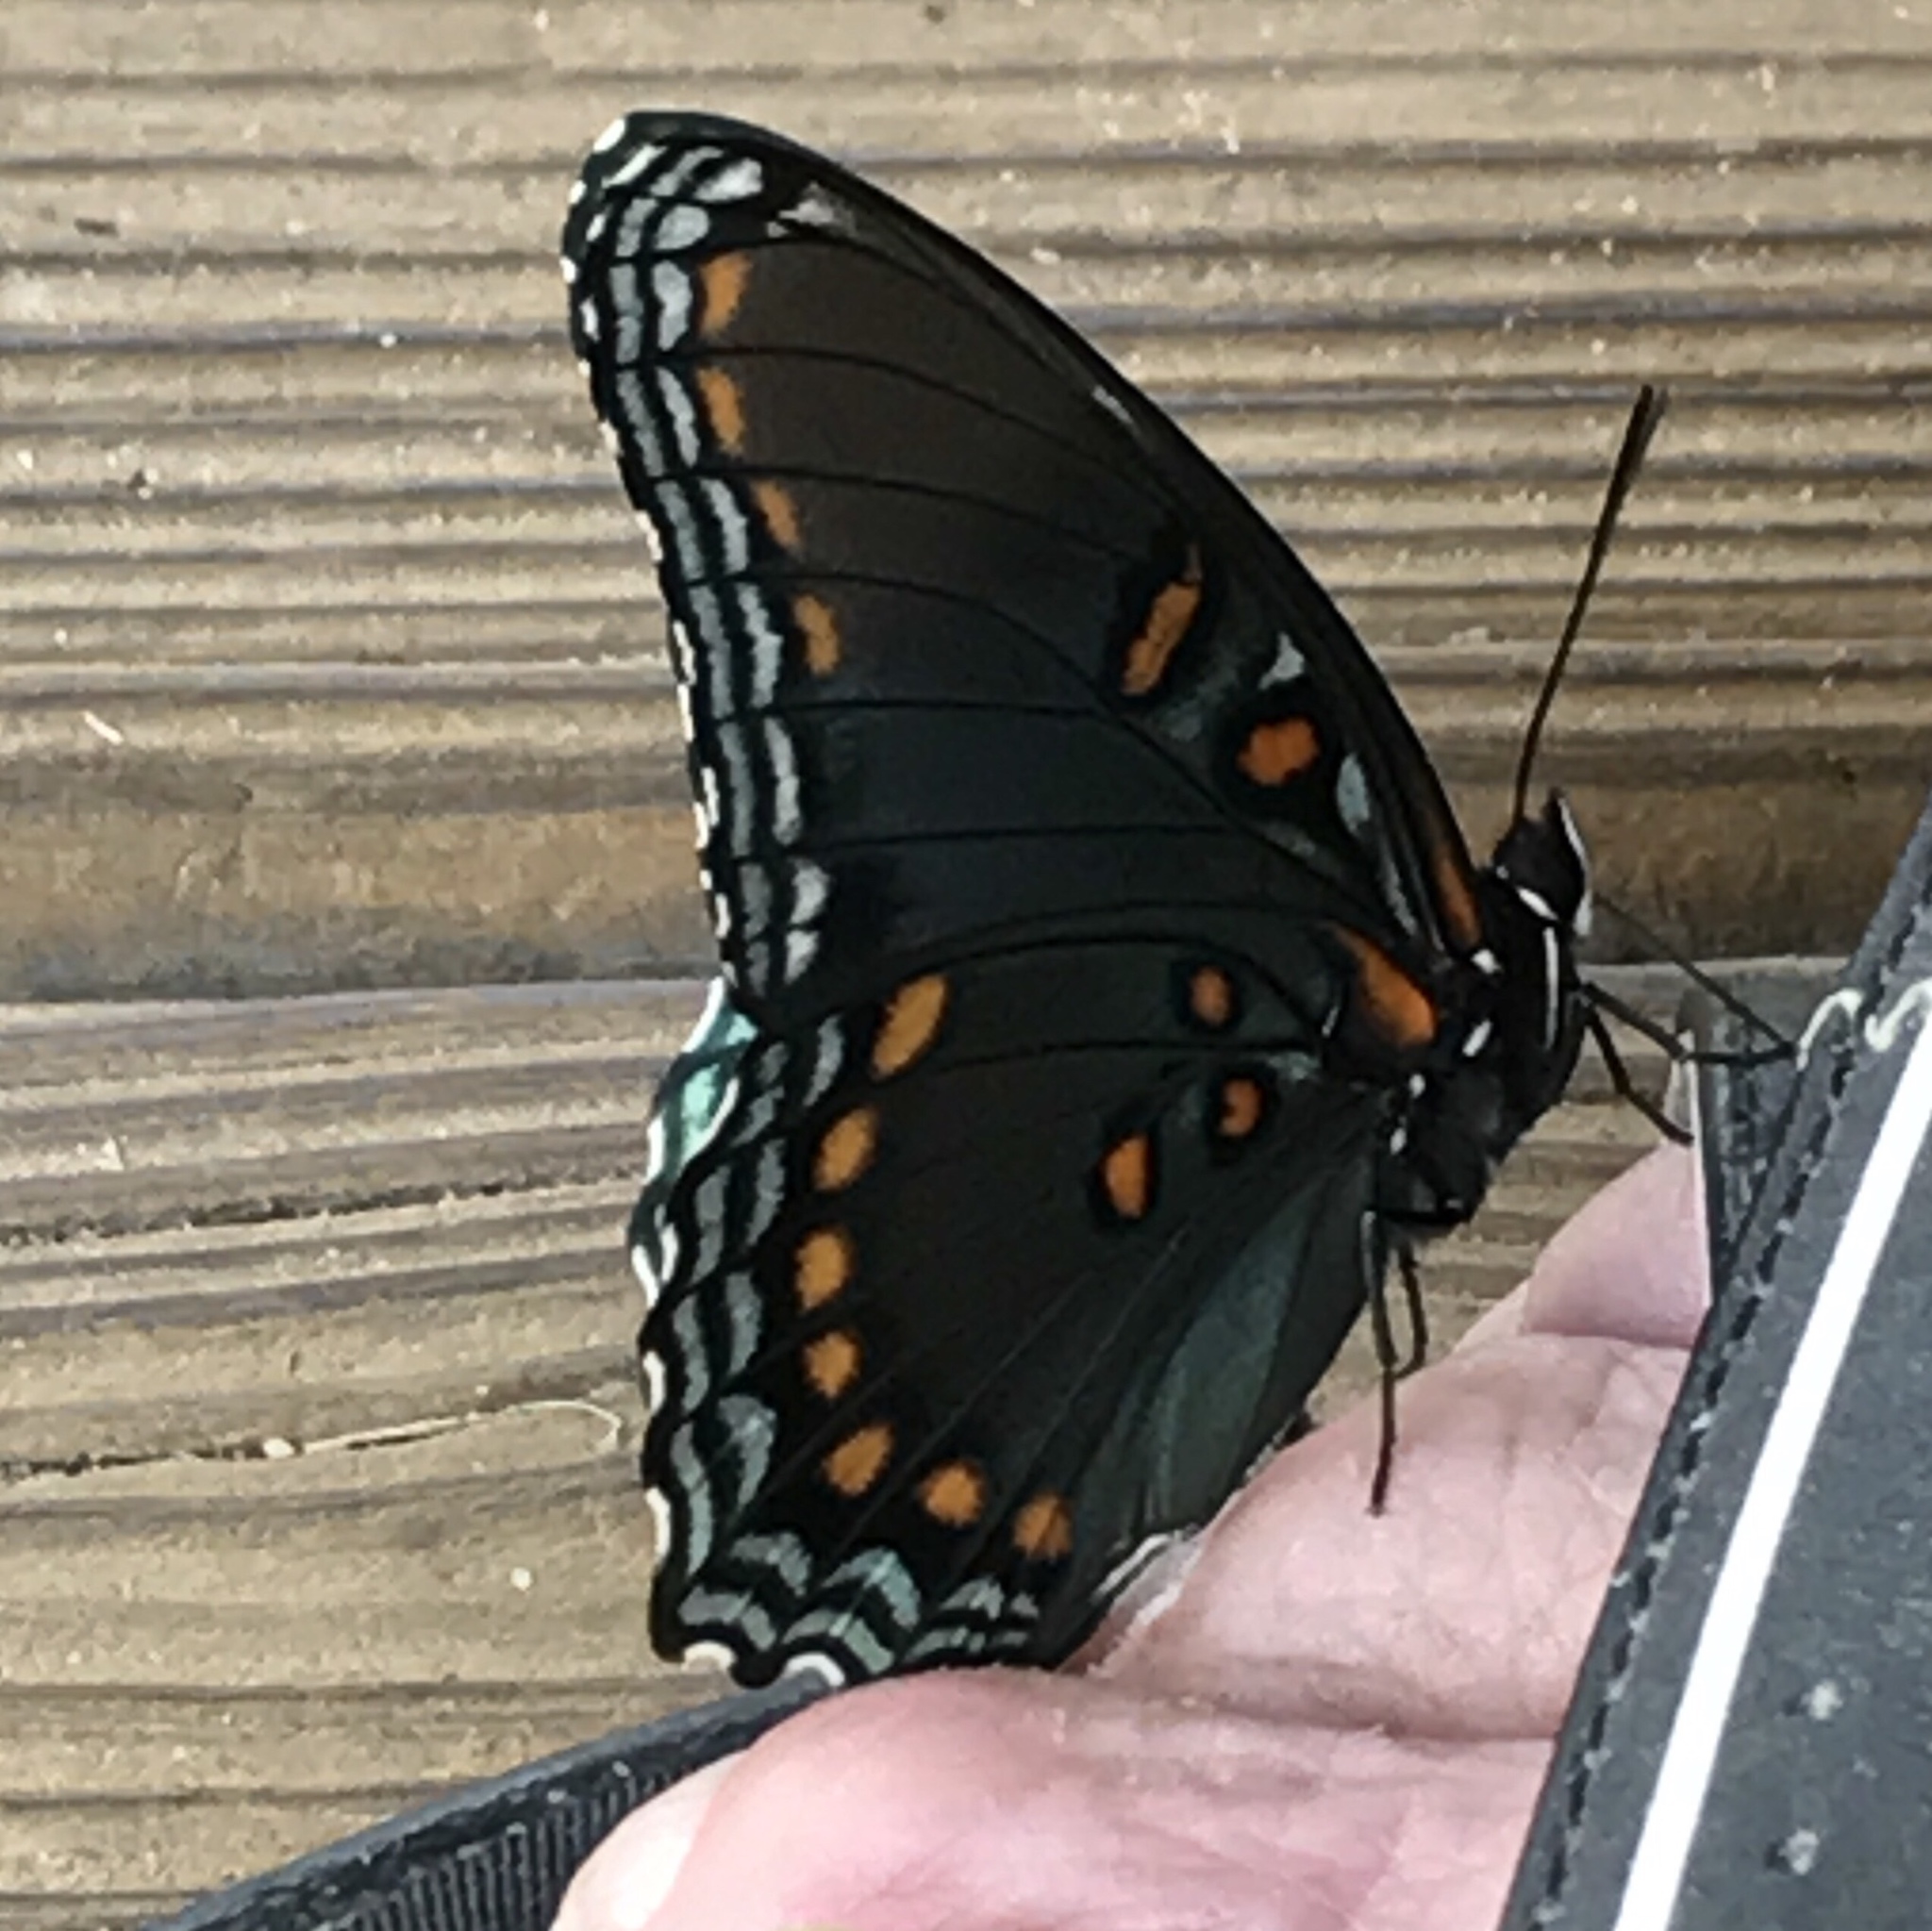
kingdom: Animalia
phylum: Arthropoda
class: Insecta
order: Lepidoptera
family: Nymphalidae
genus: Limenitis
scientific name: Limenitis arthemis
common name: Red-spotted admiral
